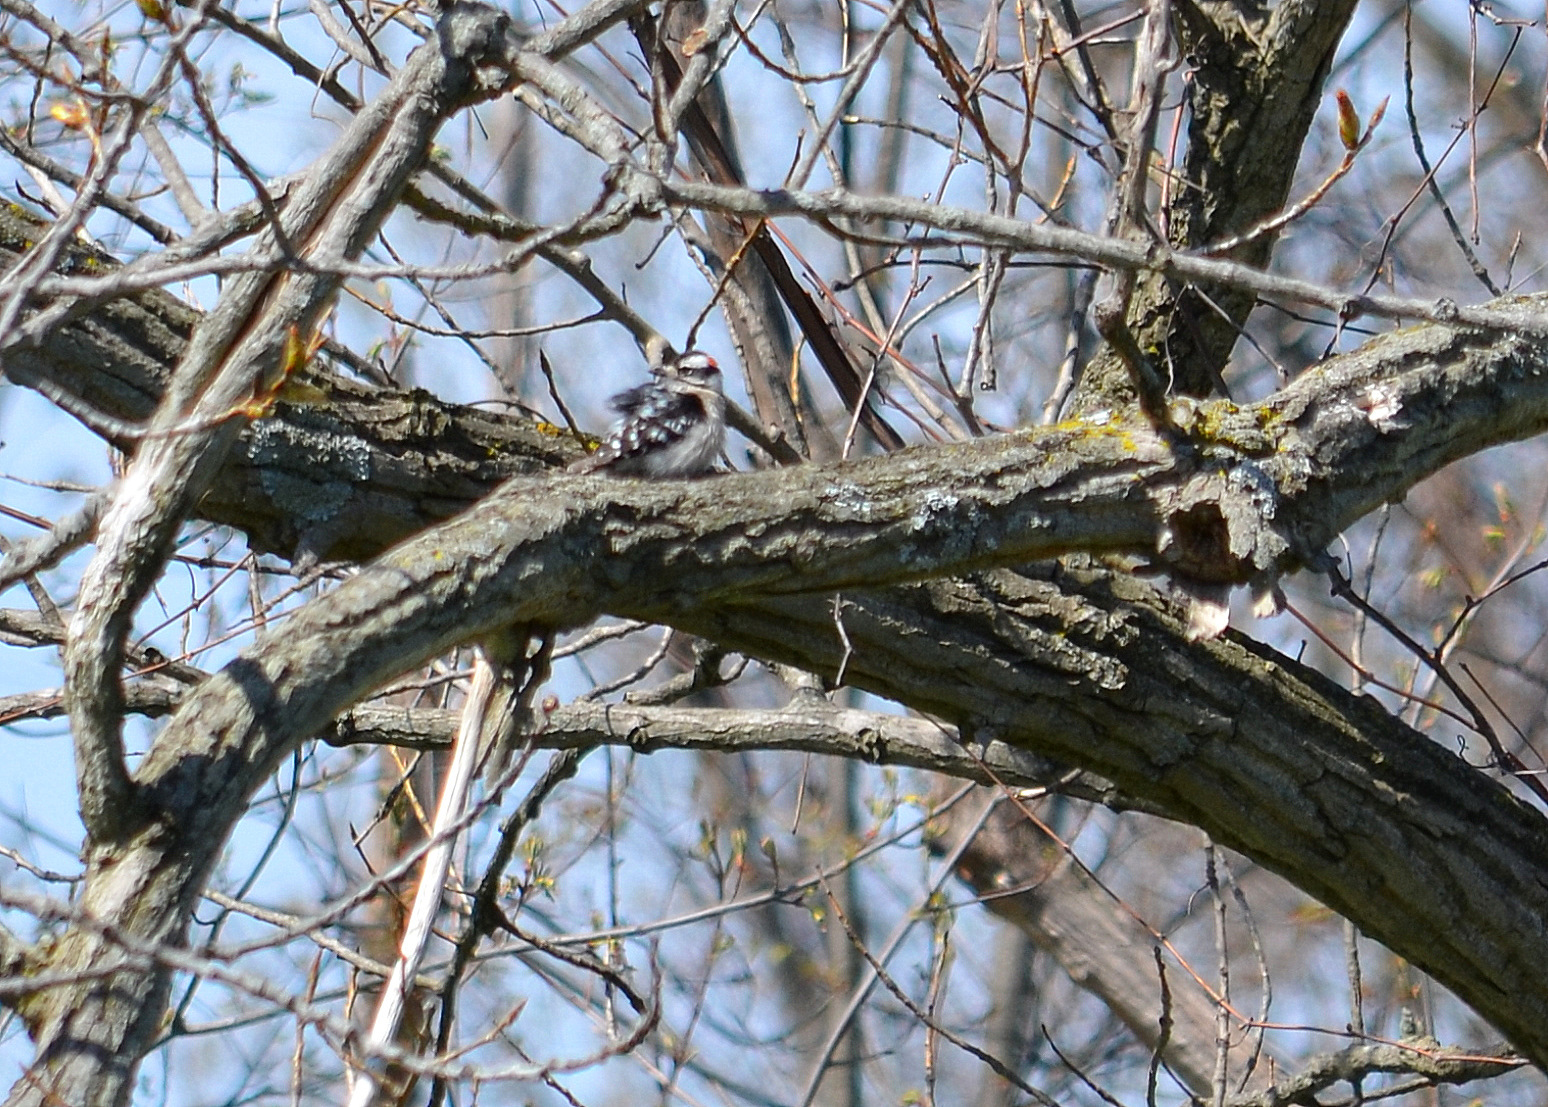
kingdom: Animalia
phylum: Chordata
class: Aves
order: Piciformes
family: Picidae
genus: Dryobates
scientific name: Dryobates pubescens
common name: Downy woodpecker
